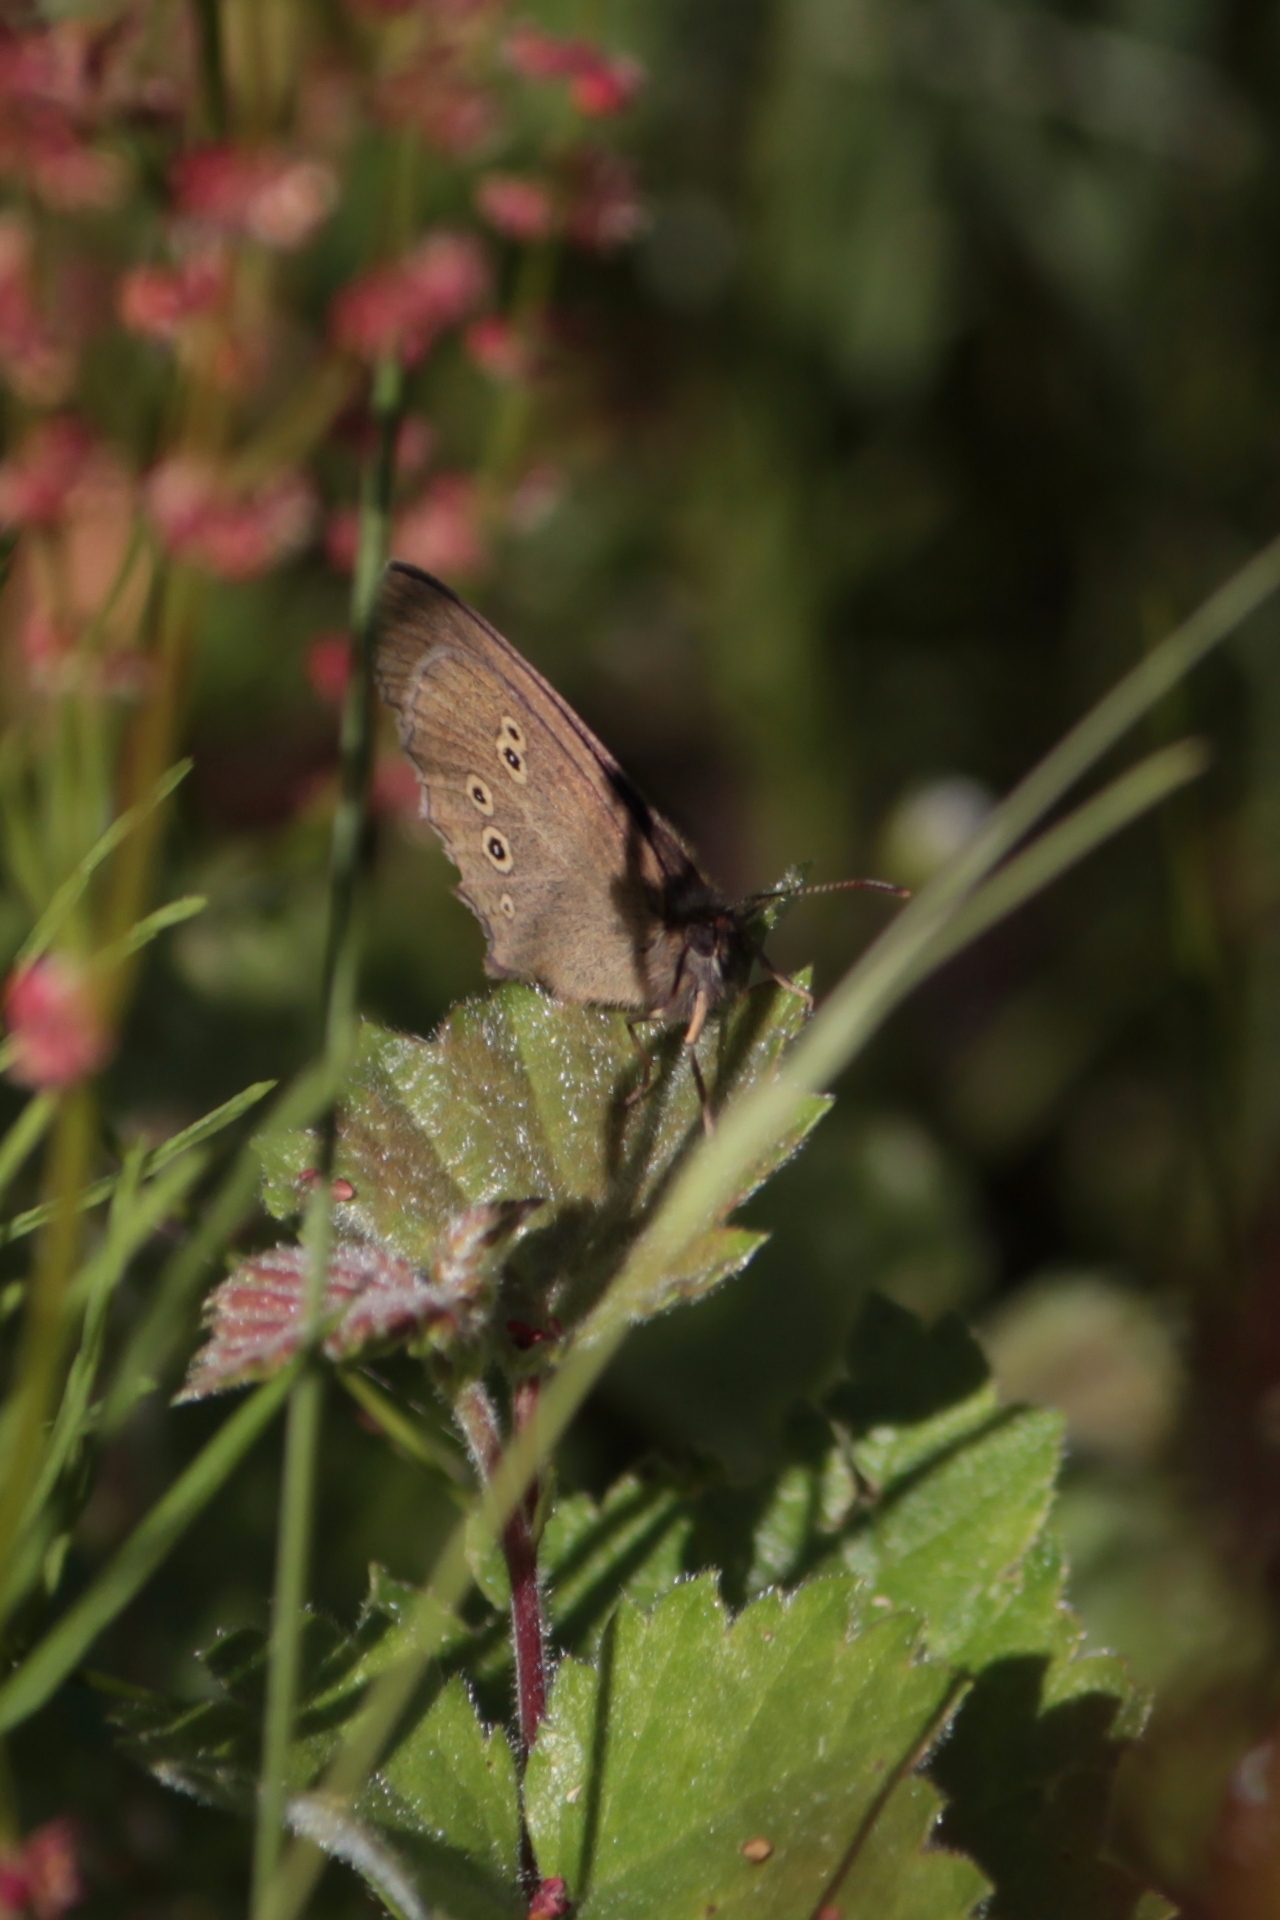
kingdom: Animalia
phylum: Arthropoda
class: Insecta
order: Lepidoptera
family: Nymphalidae
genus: Aphantopus
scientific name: Aphantopus hyperantus
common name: Ringlet
